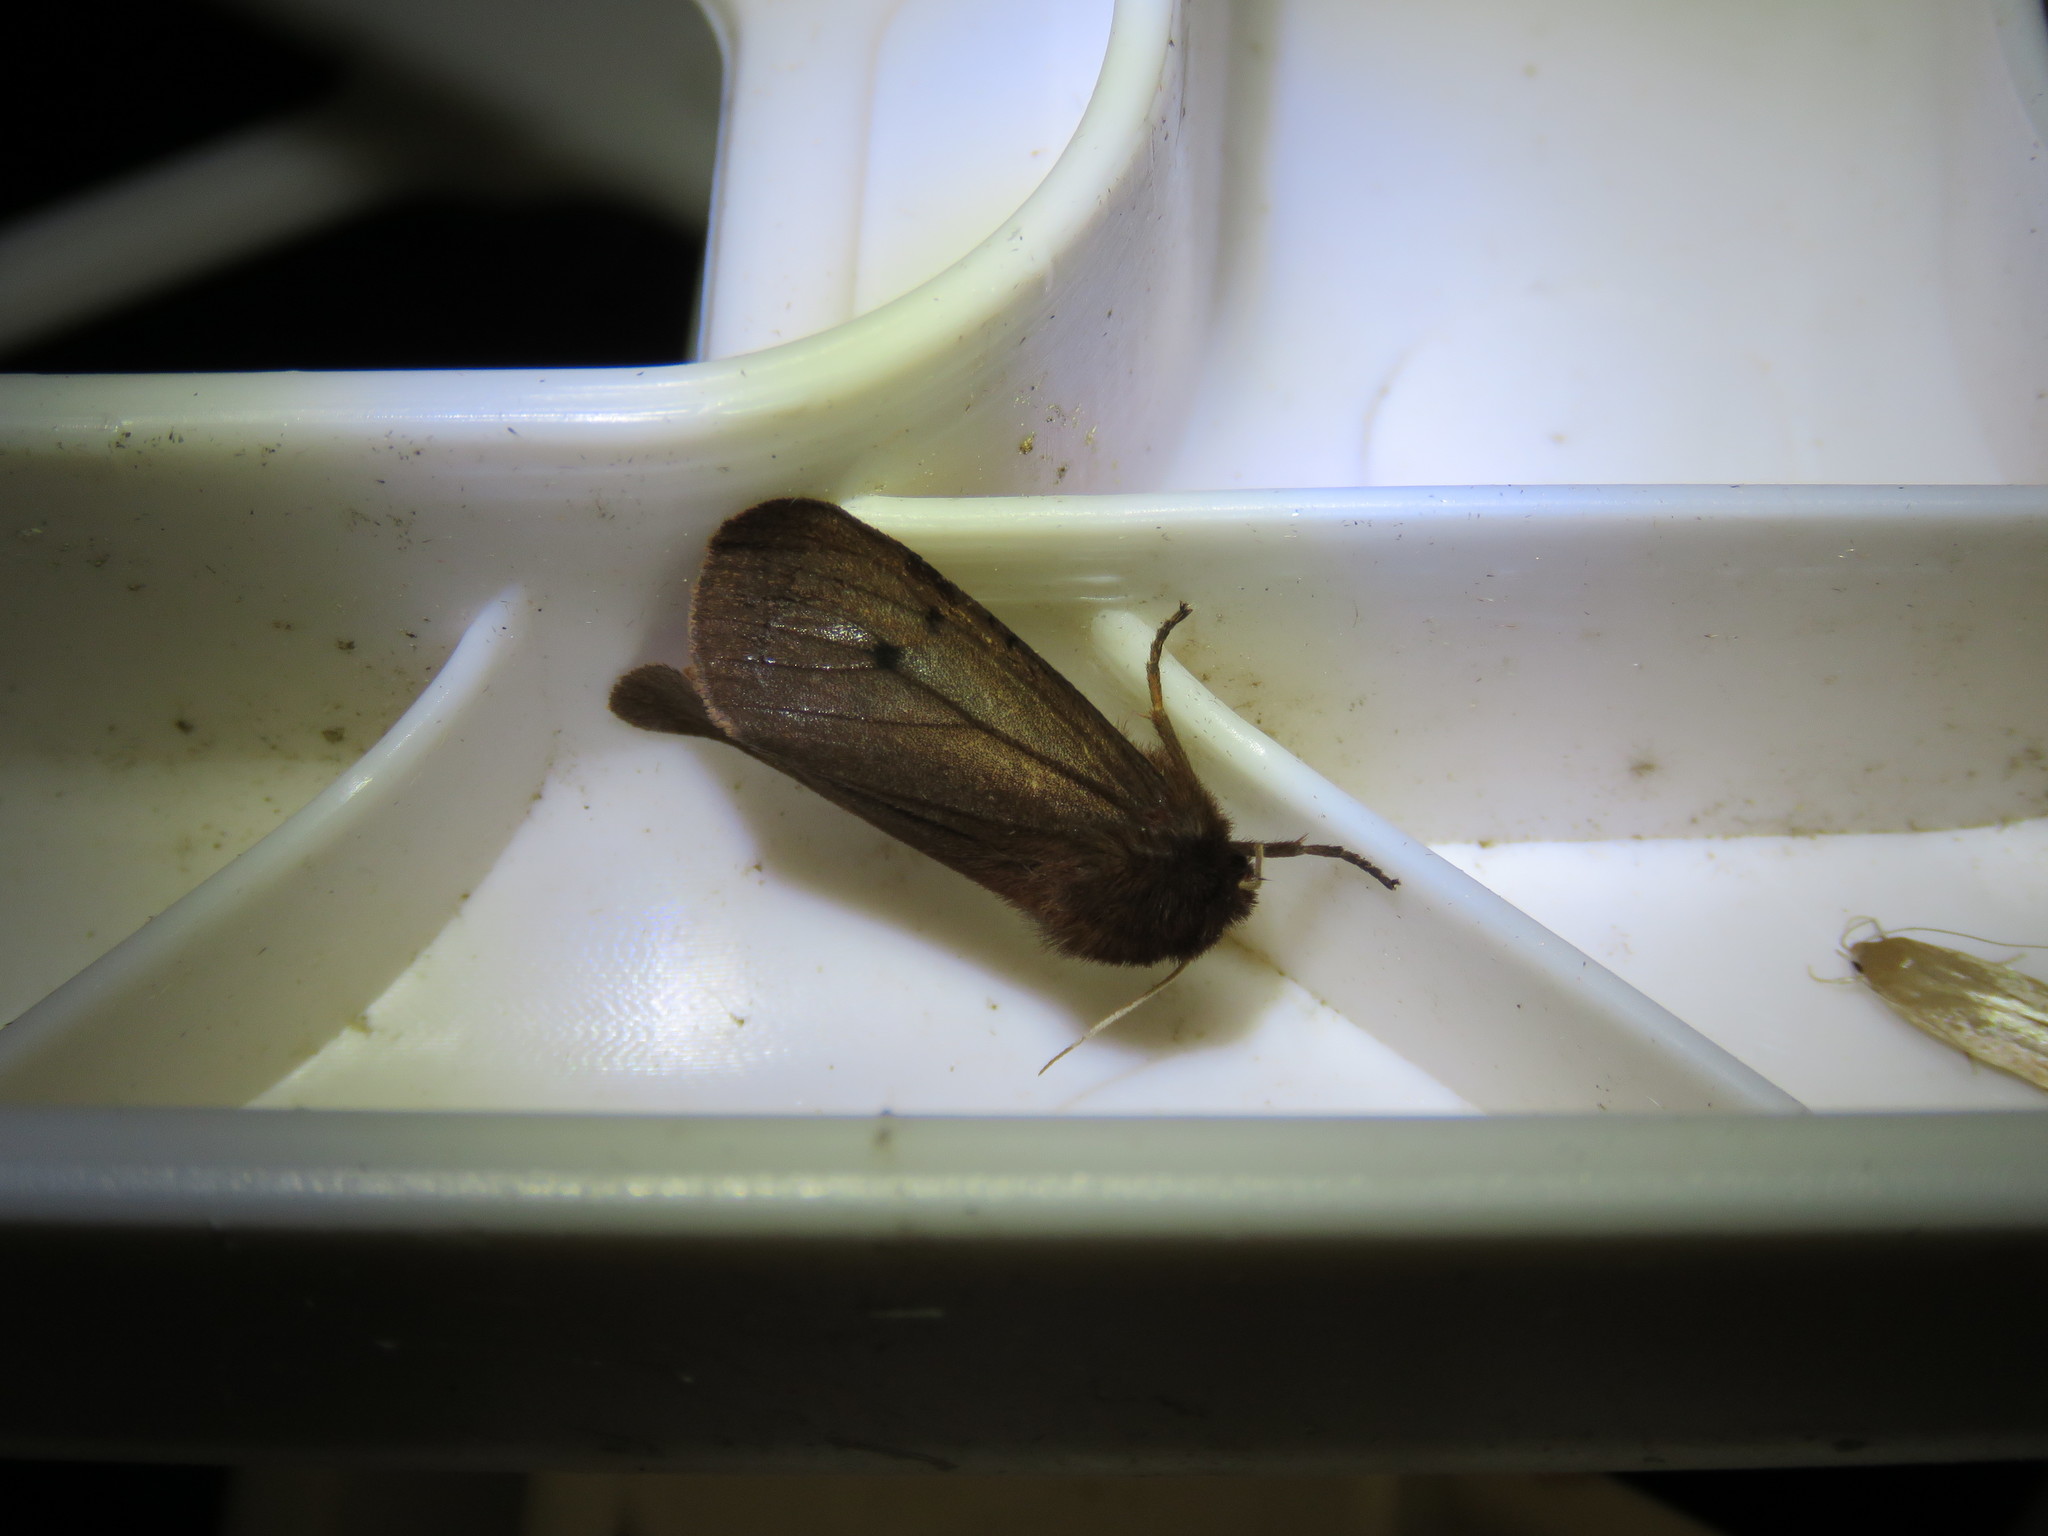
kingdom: Animalia
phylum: Arthropoda
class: Insecta
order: Lepidoptera
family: Erebidae
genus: Phragmatobia
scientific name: Phragmatobia fuliginosa
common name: Ruby tiger
